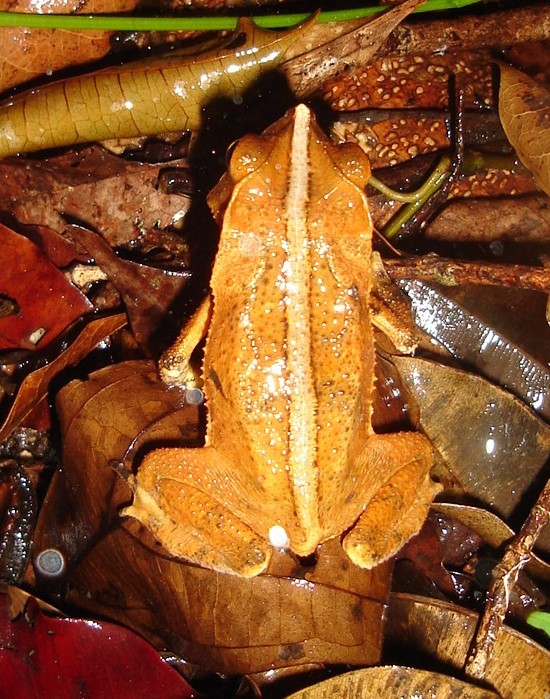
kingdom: Animalia
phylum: Chordata
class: Amphibia
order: Anura
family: Bufonidae
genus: Rhinella
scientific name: Rhinella margaritifera
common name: Mitred toad
